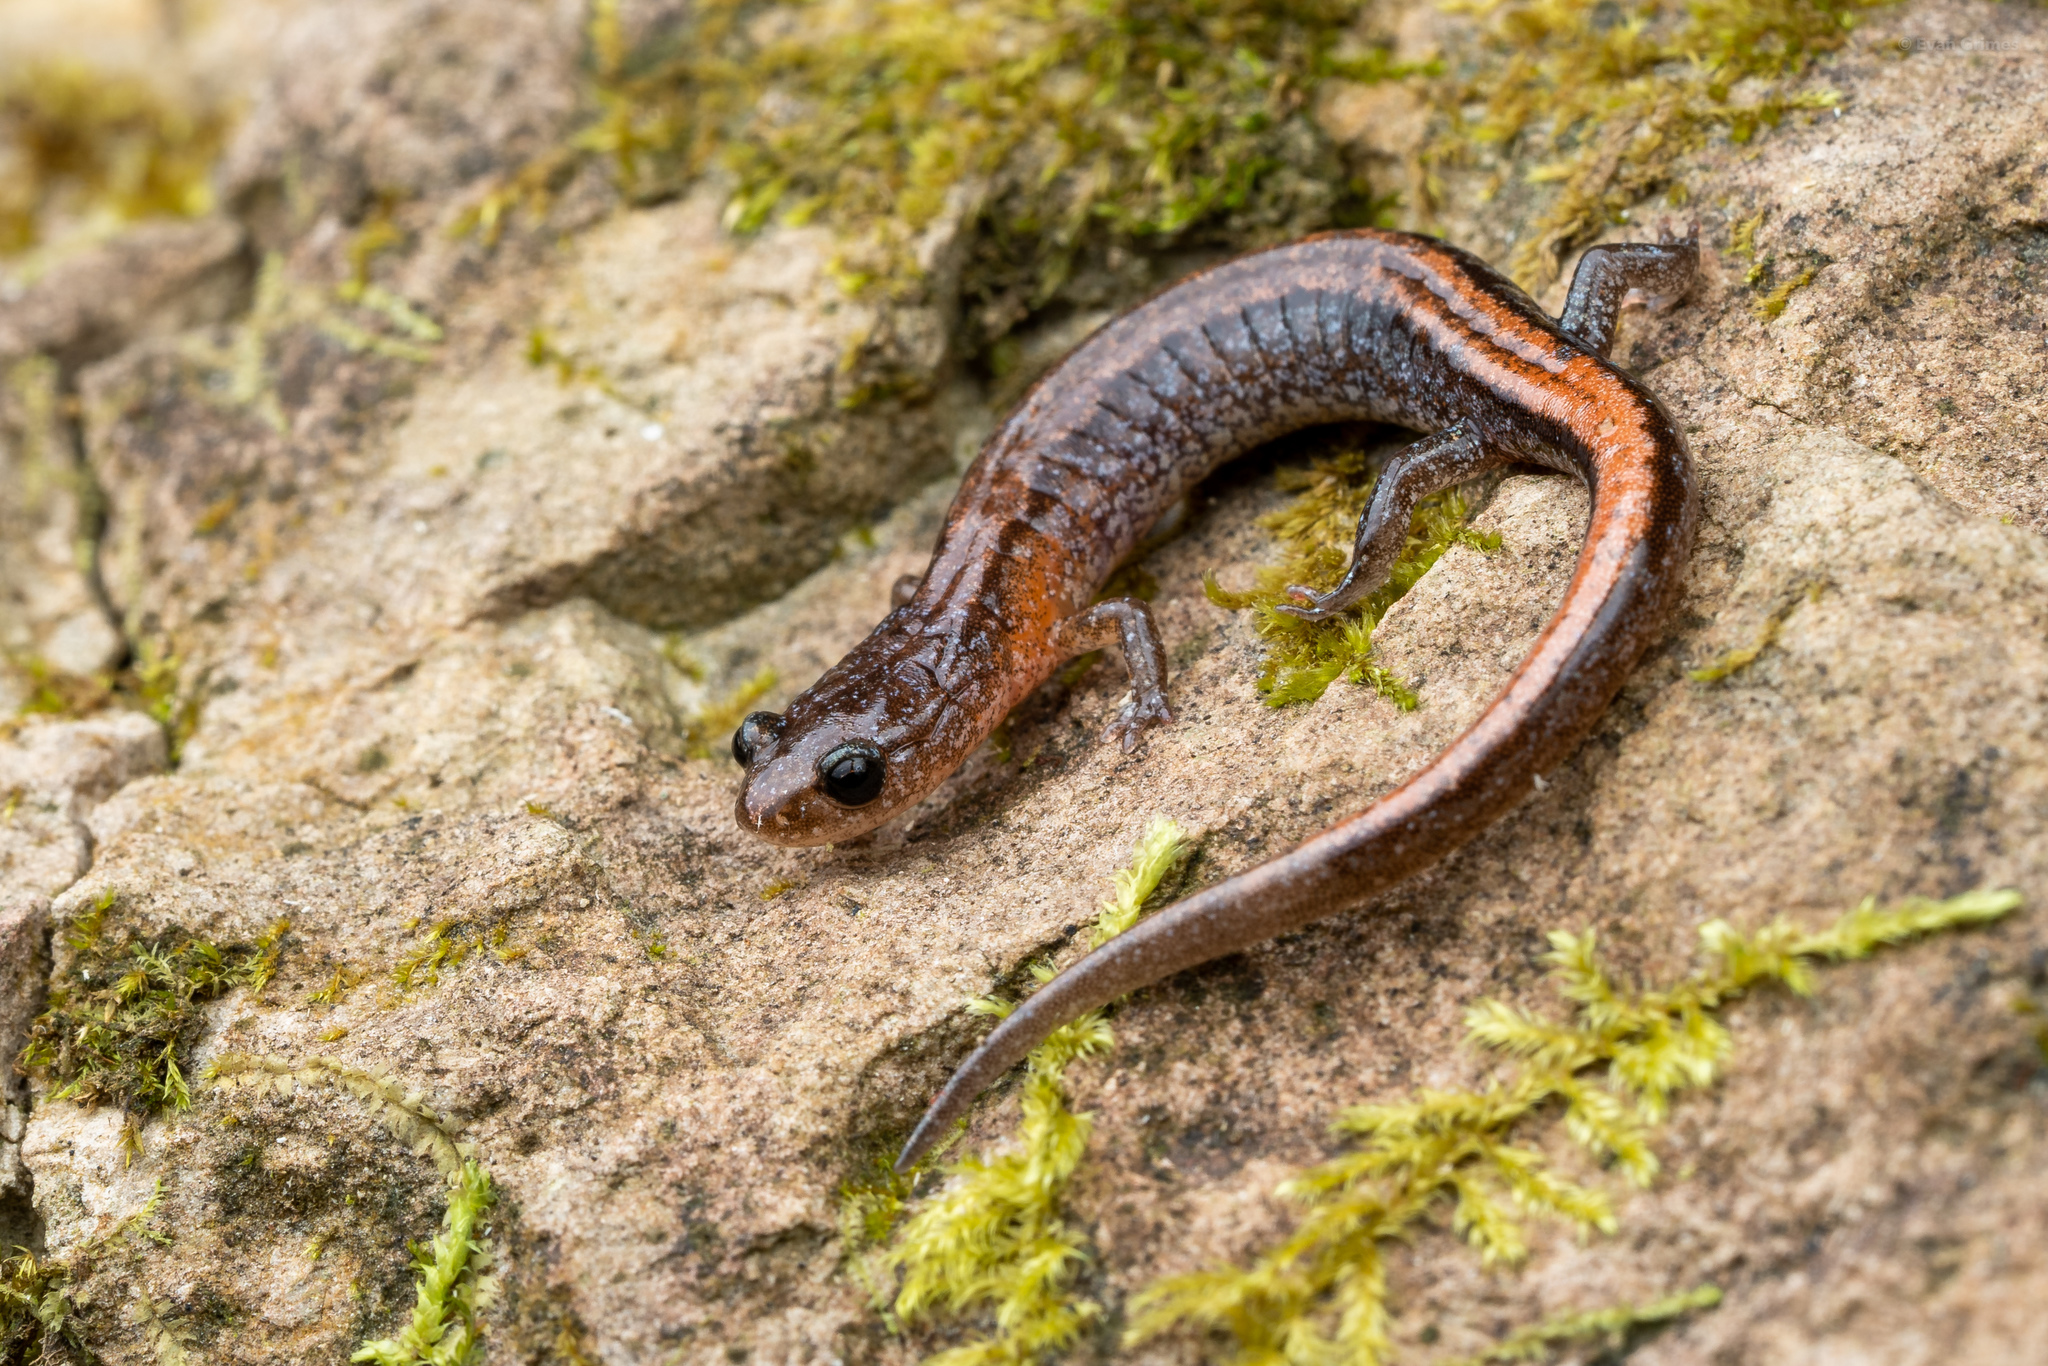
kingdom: Animalia
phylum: Chordata
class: Amphibia
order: Caudata
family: Plethodontidae
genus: Plethodon
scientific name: Plethodon websteri
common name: Webster's salamander
